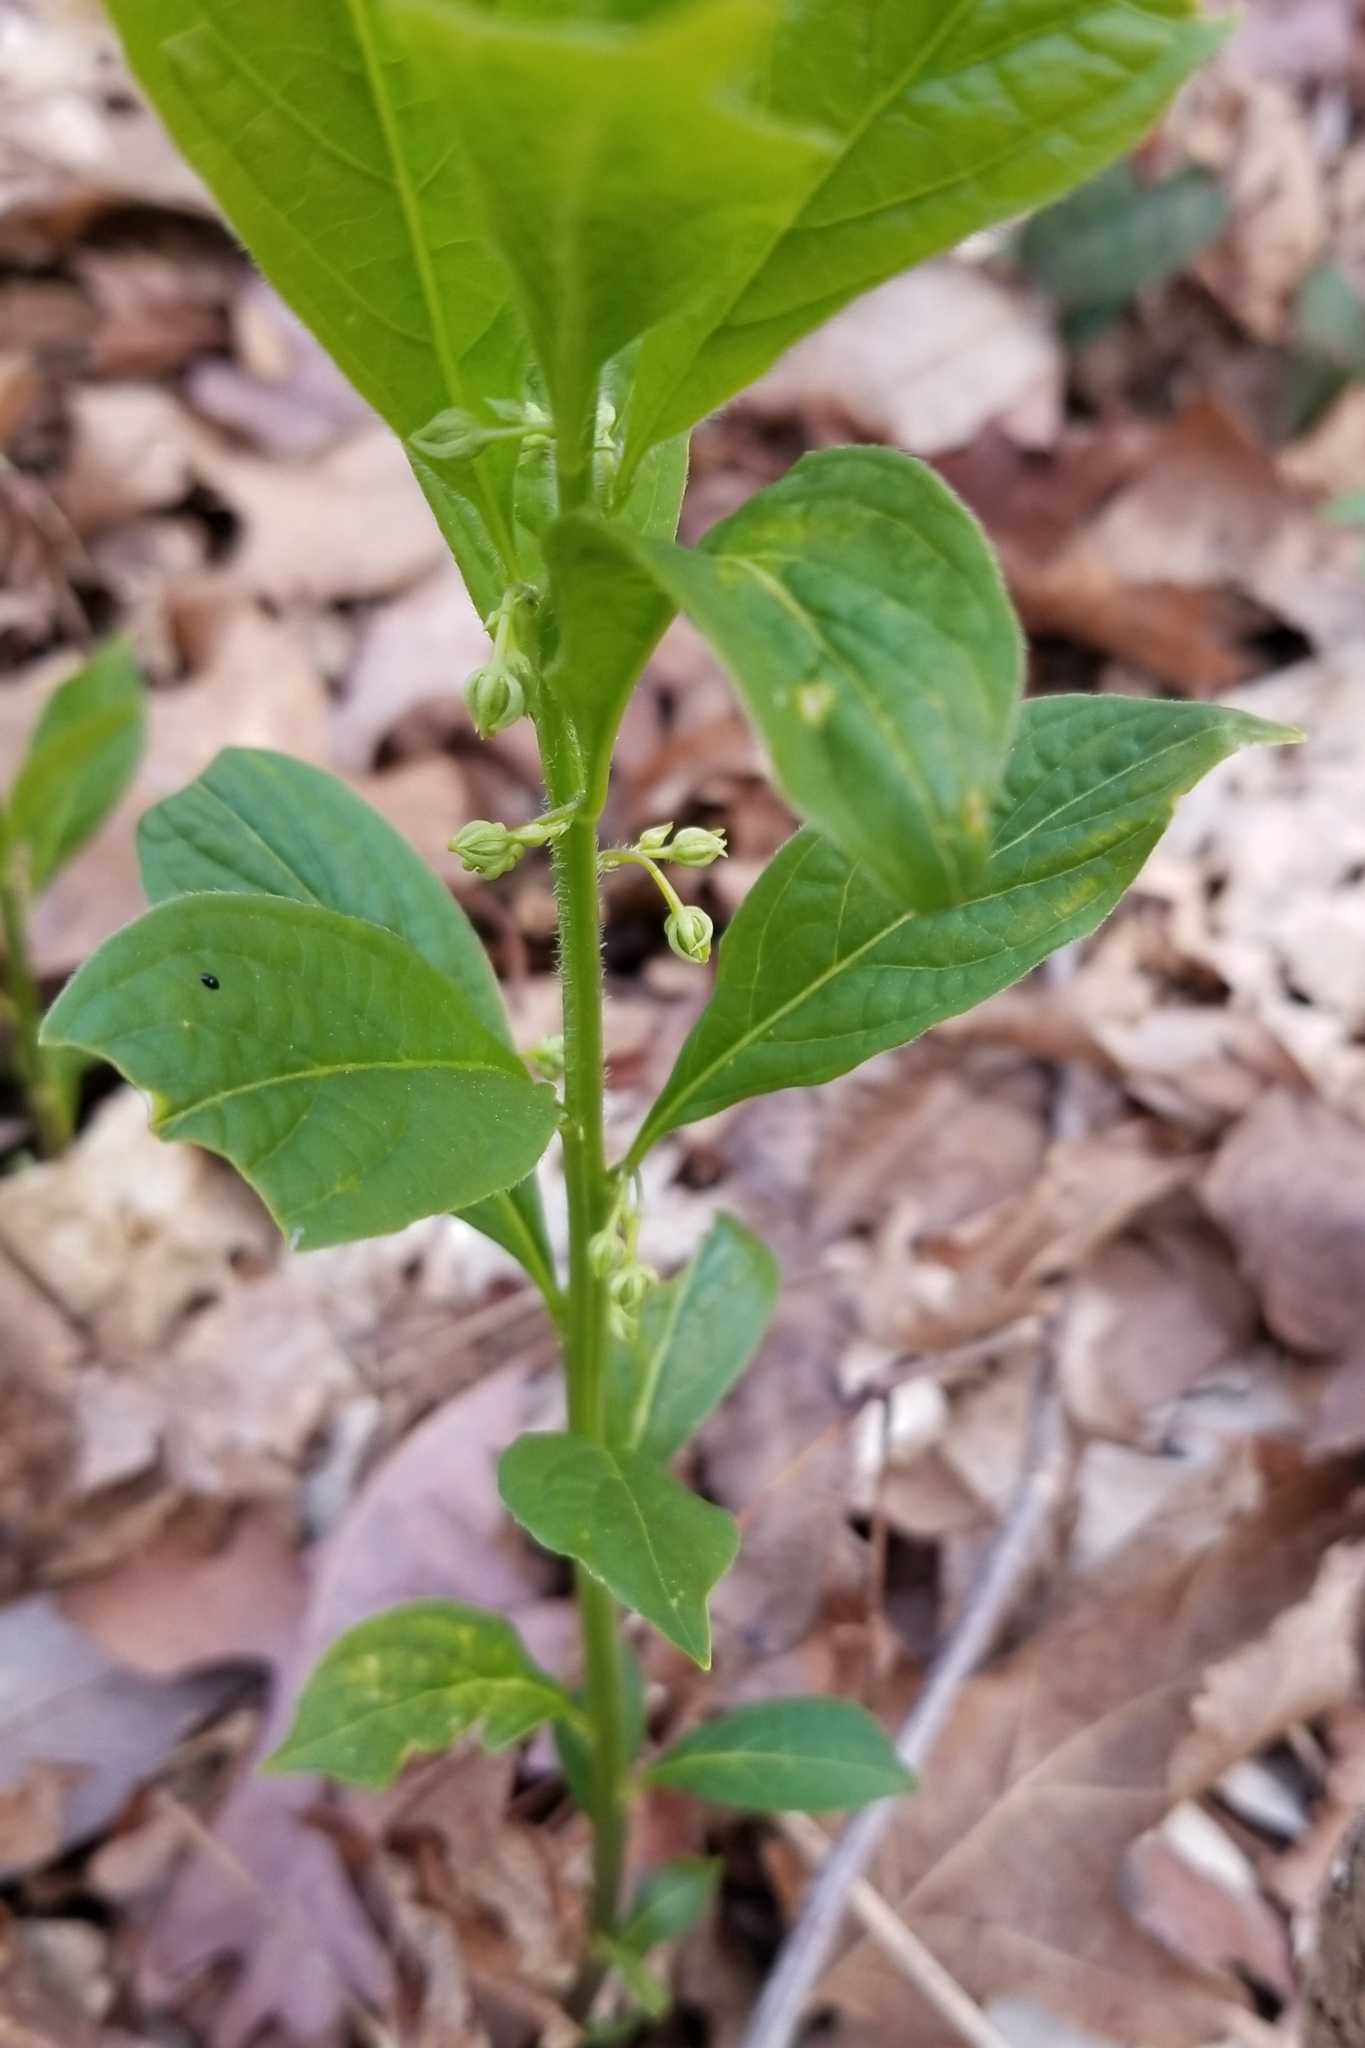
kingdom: Plantae
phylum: Tracheophyta
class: Magnoliopsida
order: Malpighiales
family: Violaceae
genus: Cubelium
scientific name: Cubelium concolor
